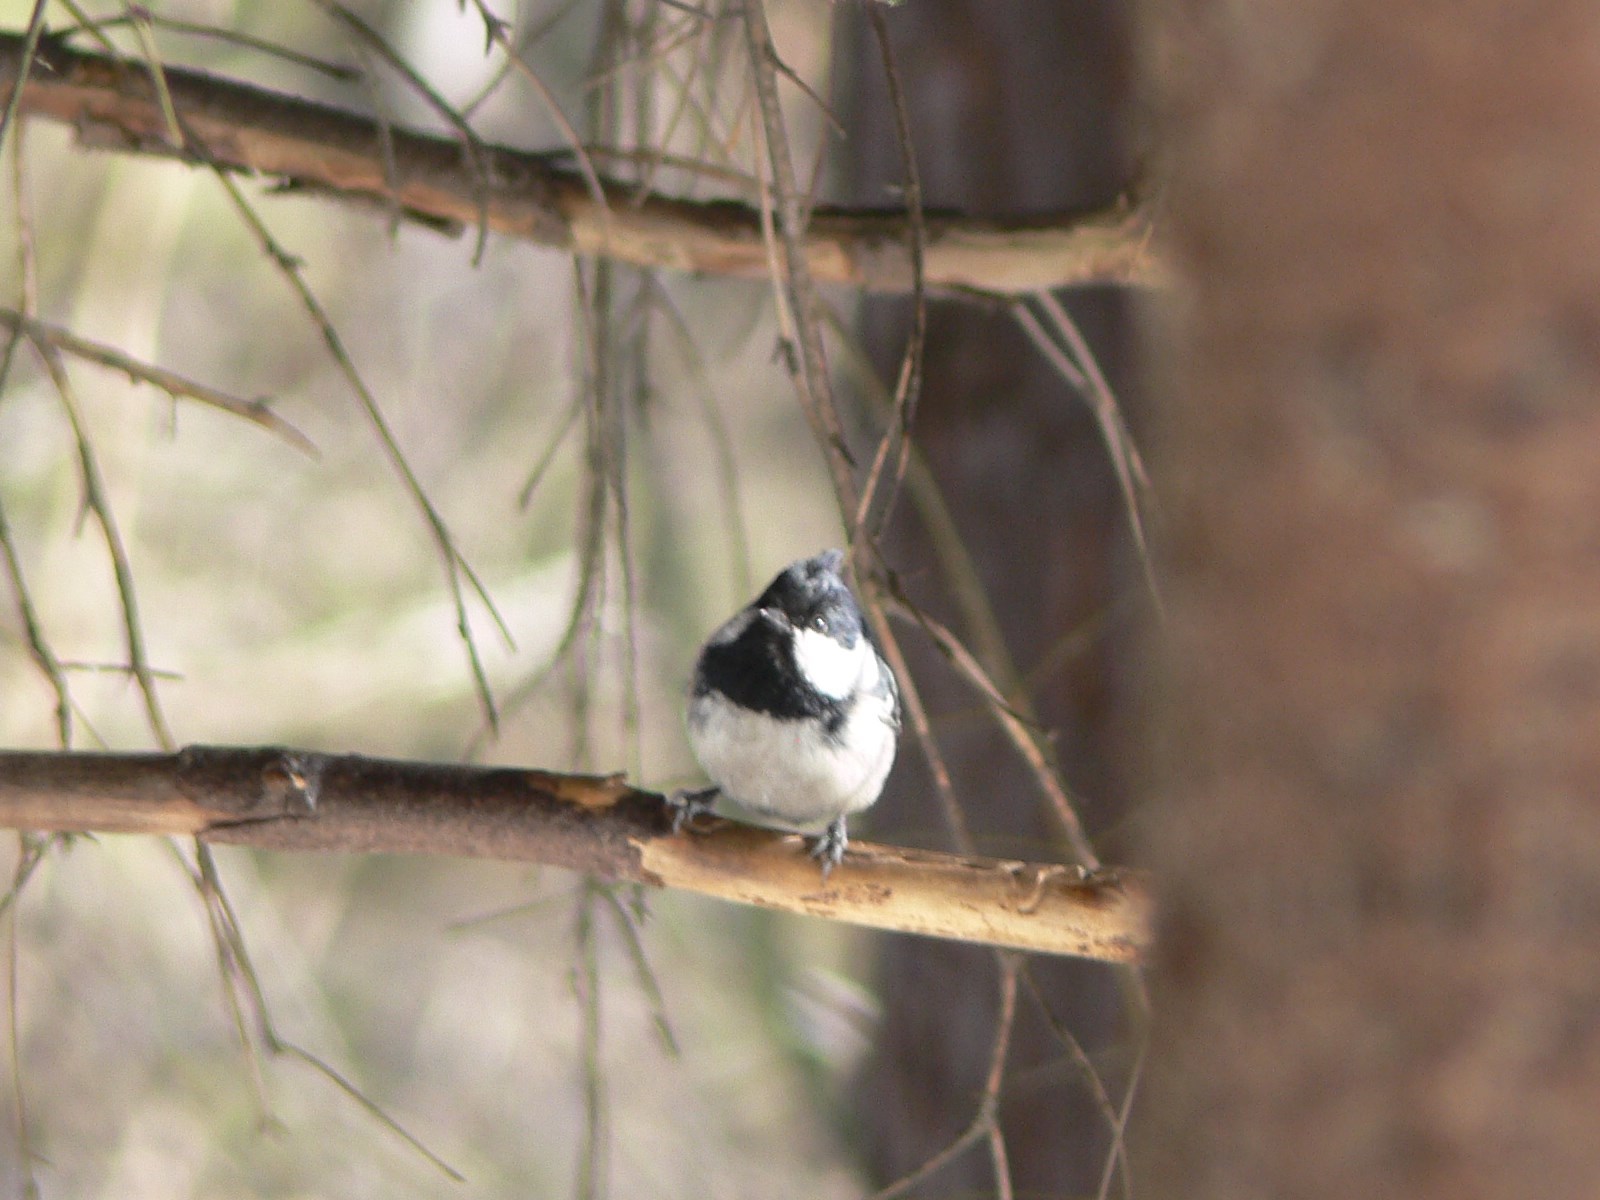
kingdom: Animalia
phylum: Chordata
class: Aves
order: Passeriformes
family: Paridae
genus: Periparus
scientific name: Periparus ater
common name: Coal tit
